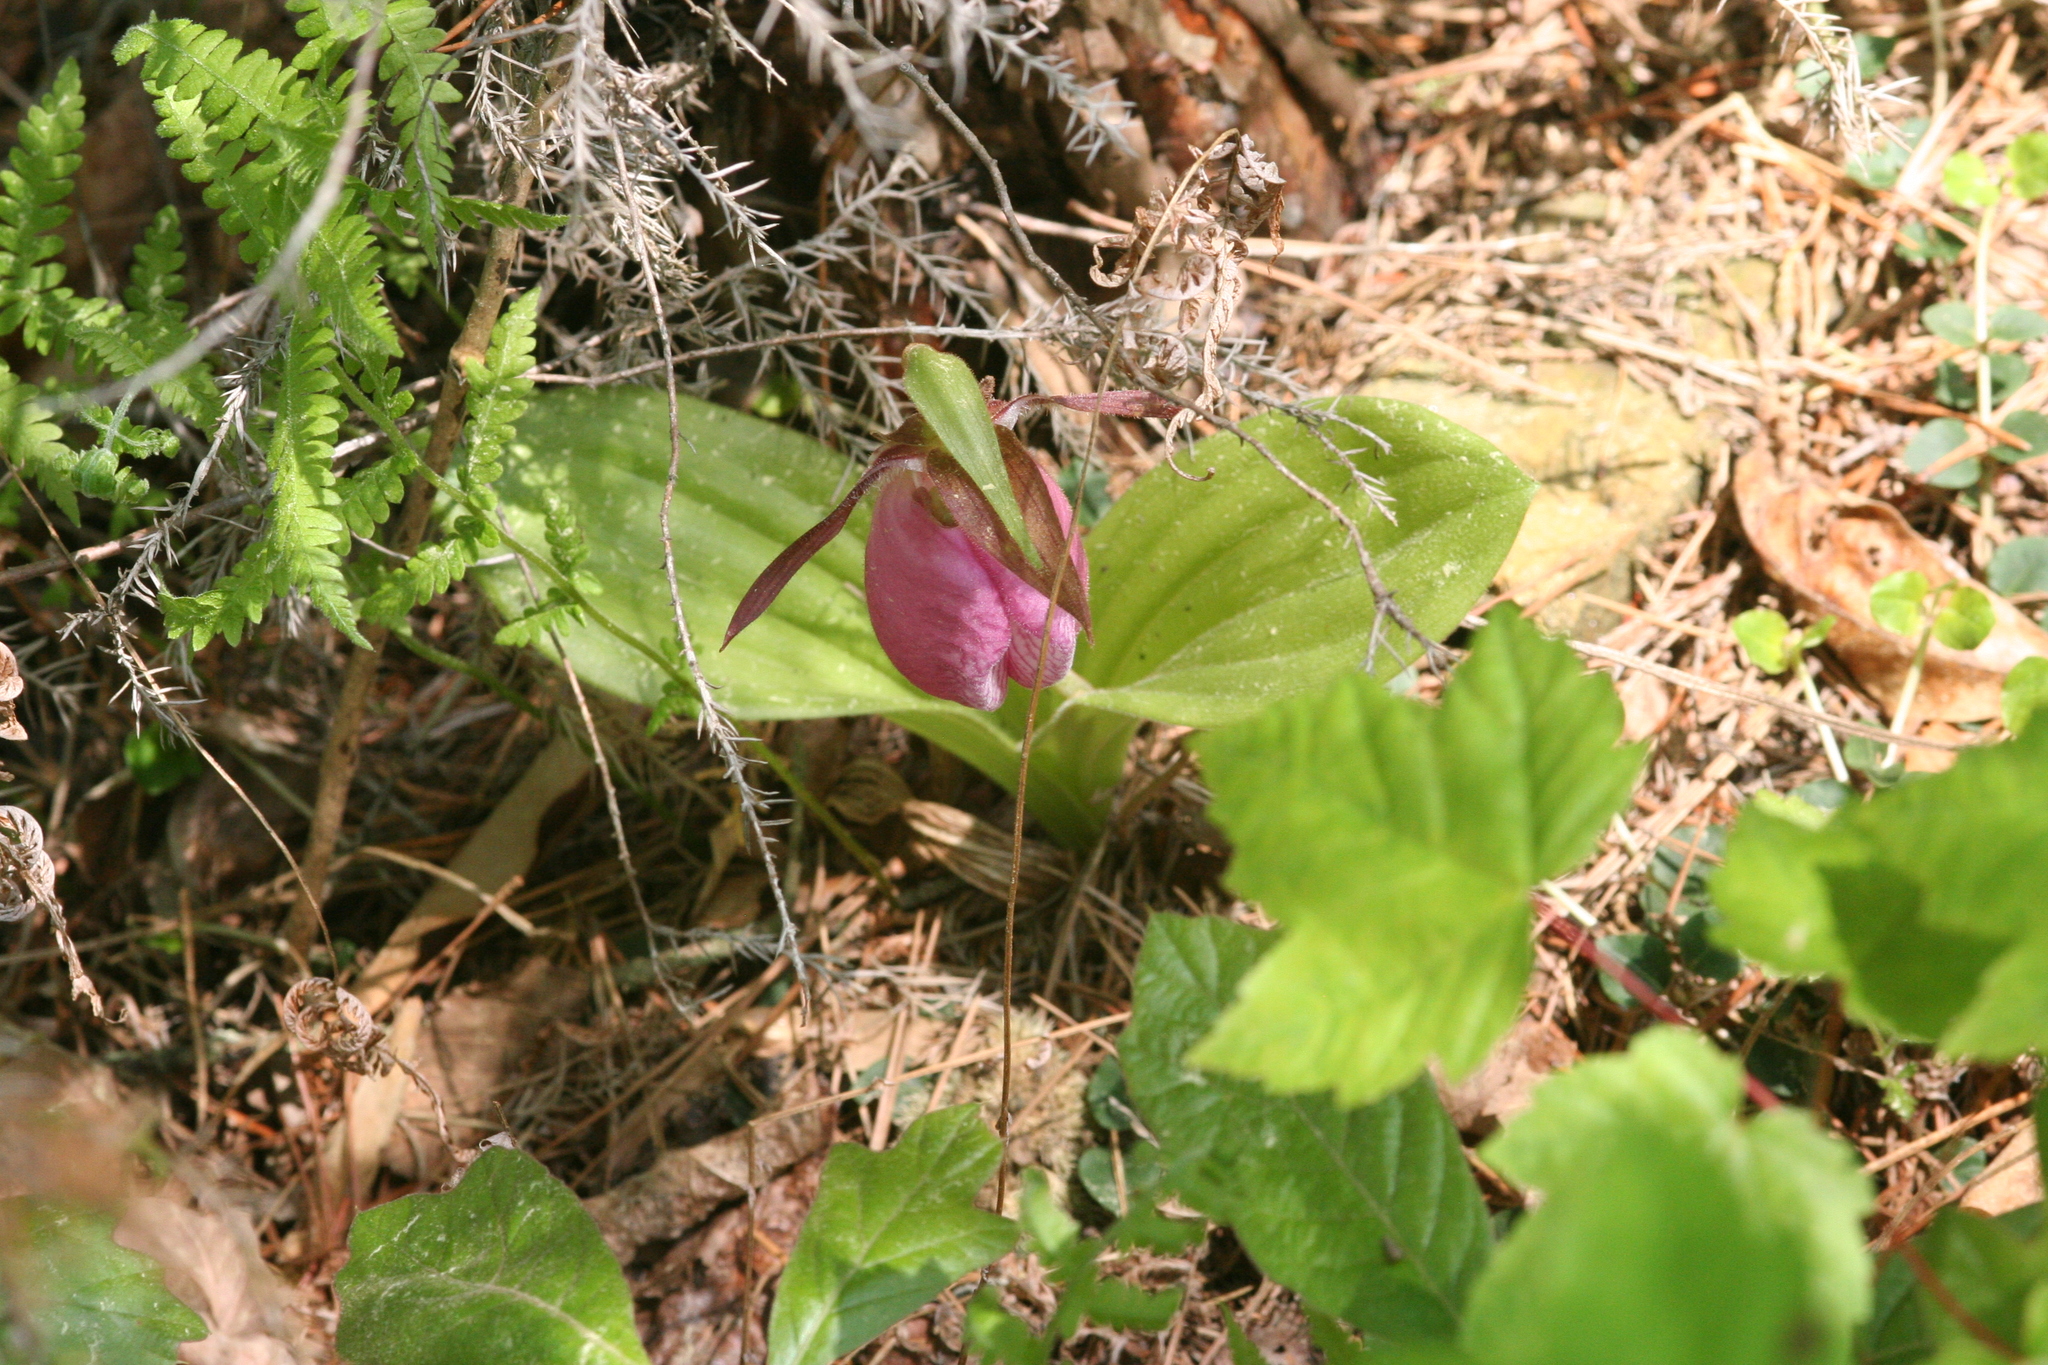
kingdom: Plantae
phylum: Tracheophyta
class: Liliopsida
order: Asparagales
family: Orchidaceae
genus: Cypripedium
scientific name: Cypripedium acaule
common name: Pink lady's-slipper
